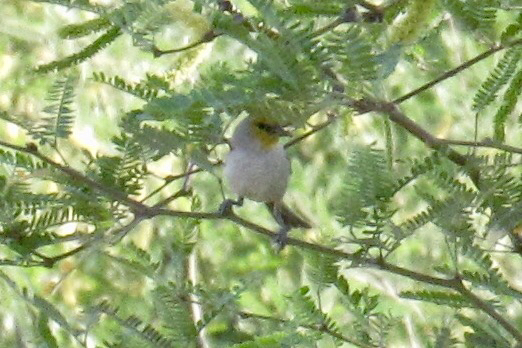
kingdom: Animalia
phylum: Chordata
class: Aves
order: Passeriformes
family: Remizidae
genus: Auriparus
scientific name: Auriparus flaviceps
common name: Verdin
